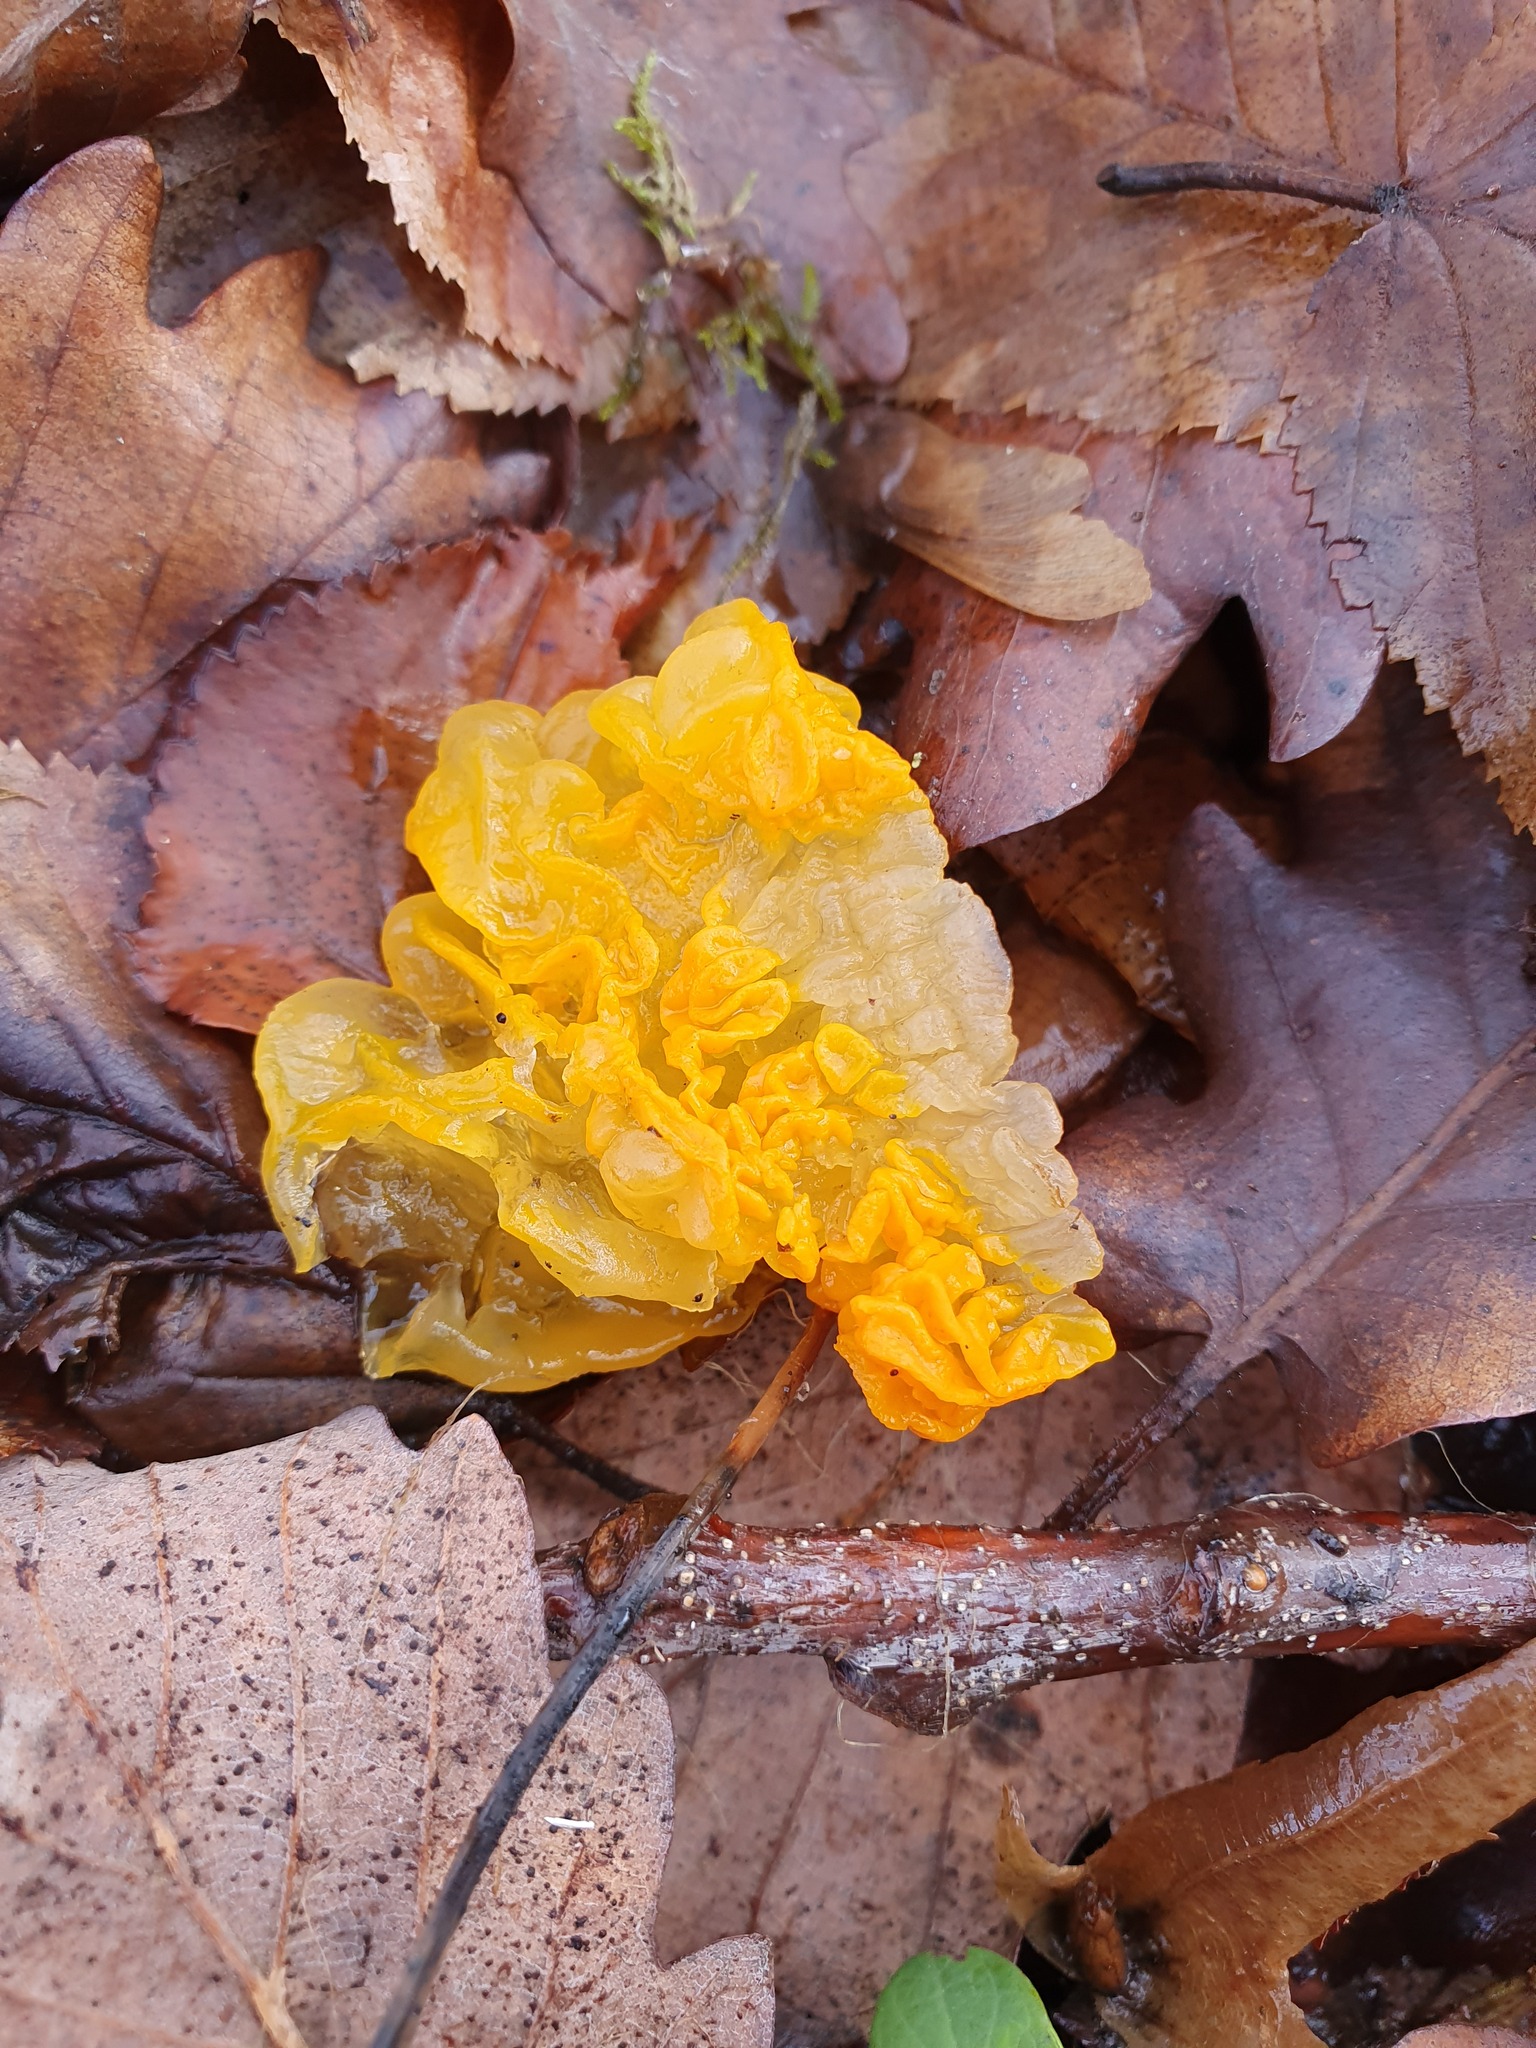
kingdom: Fungi
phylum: Basidiomycota
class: Tremellomycetes
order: Tremellales
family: Tremellaceae
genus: Tremella
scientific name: Tremella mesenterica
